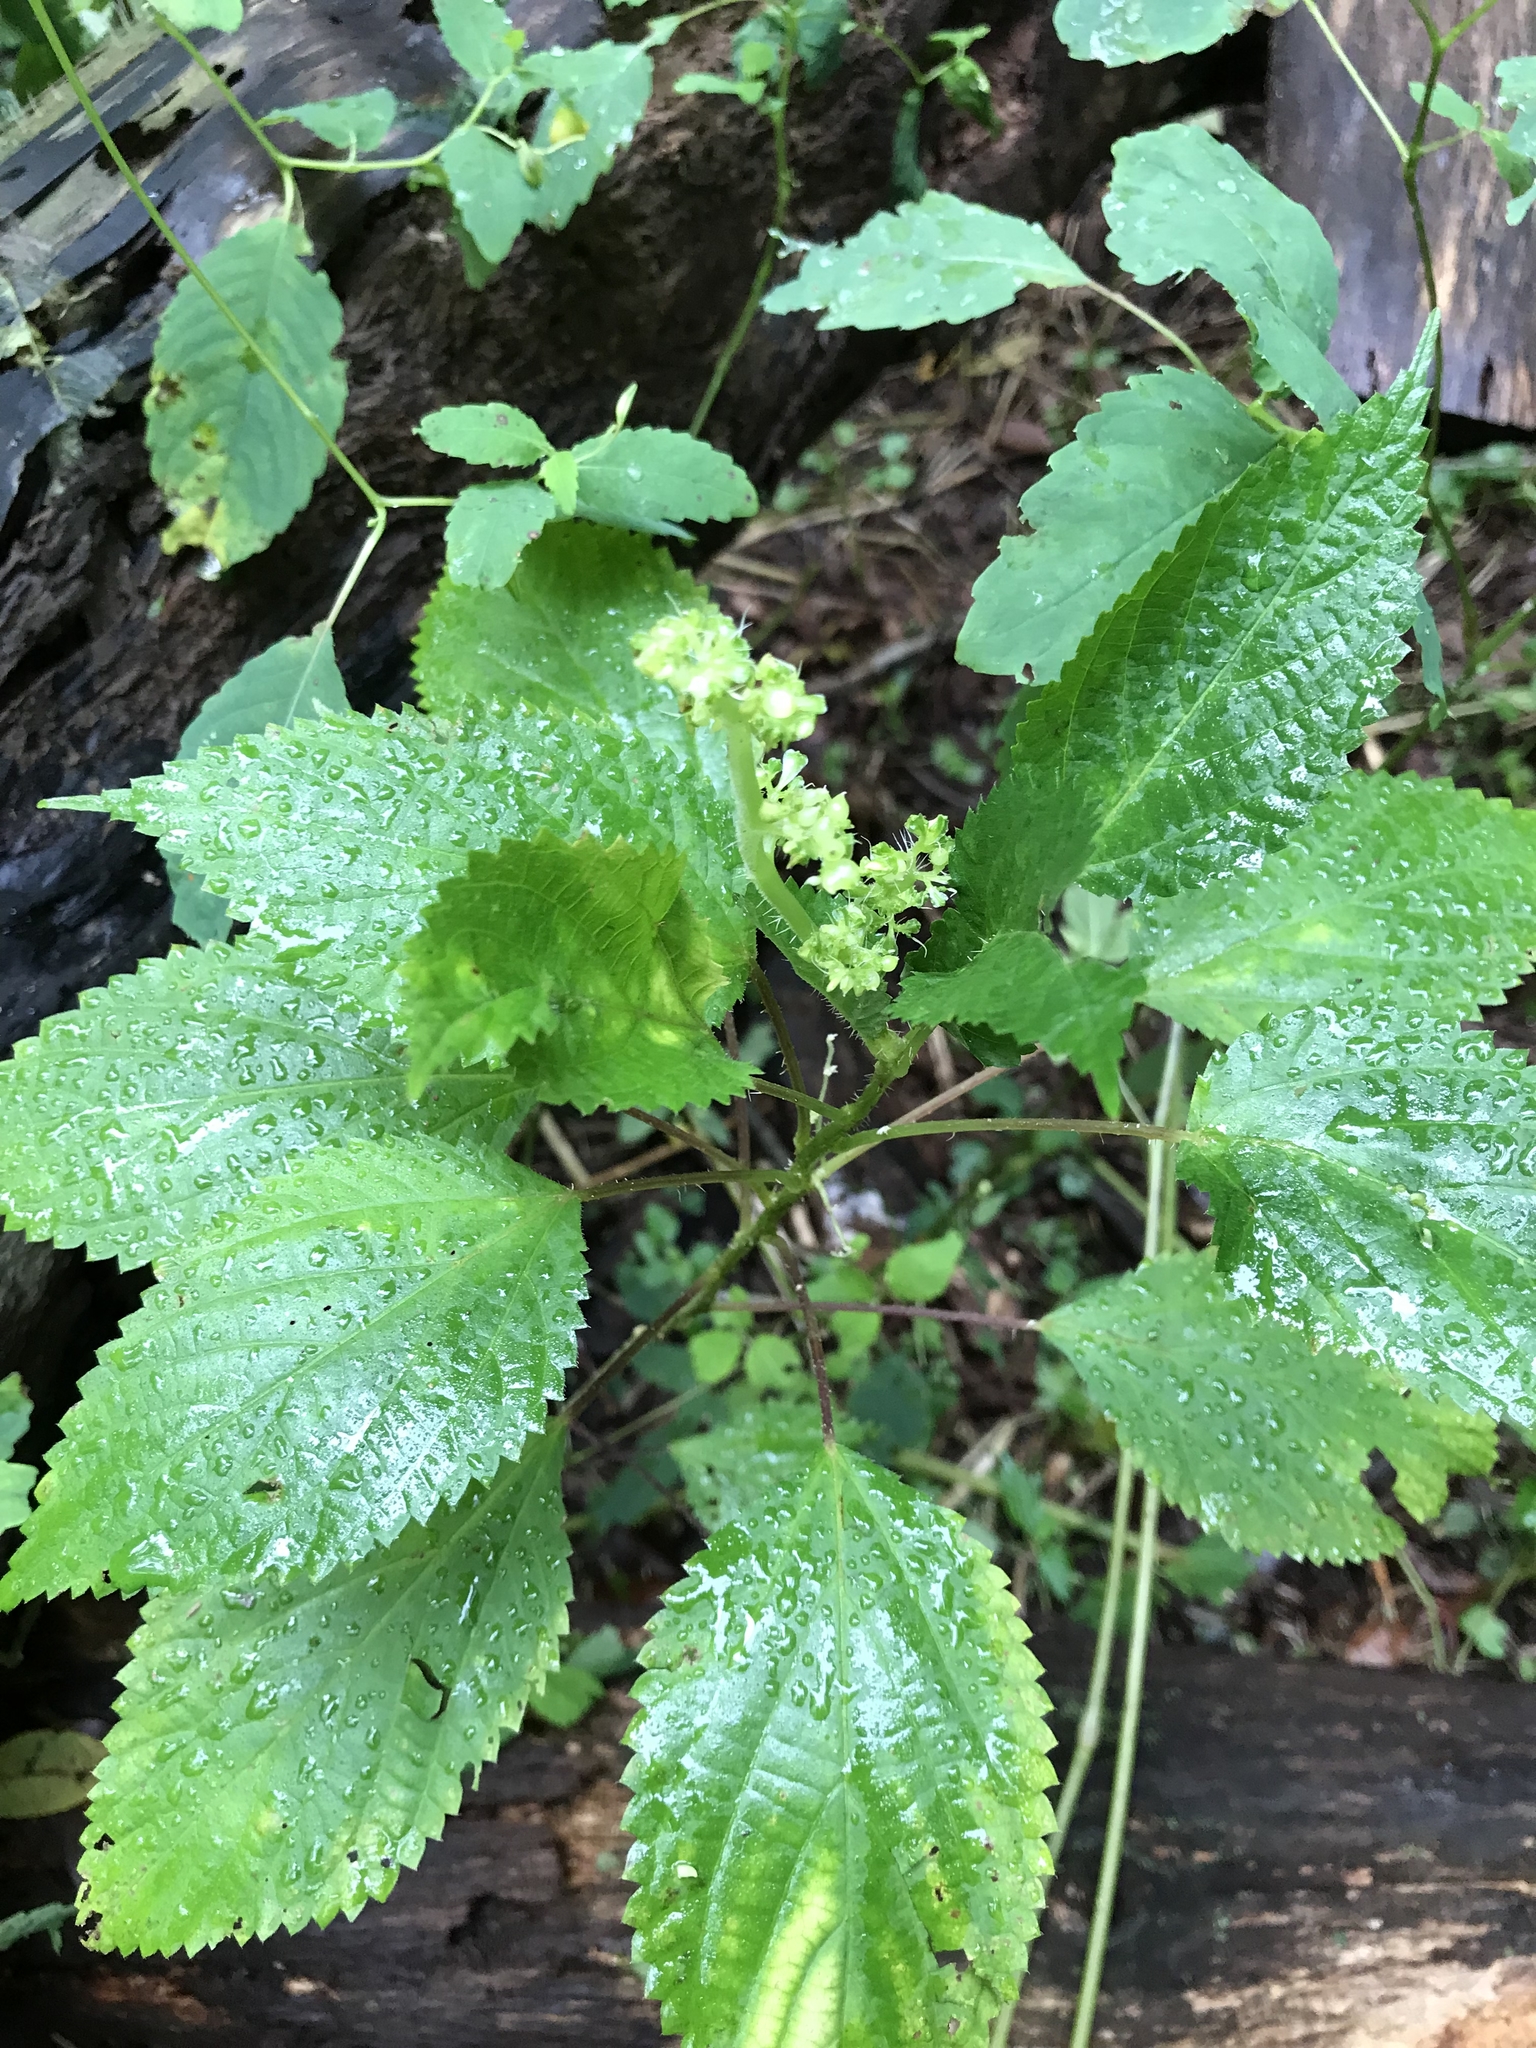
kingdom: Plantae
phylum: Tracheophyta
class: Magnoliopsida
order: Rosales
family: Urticaceae
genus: Laportea
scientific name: Laportea canadensis
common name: Canada nettle
